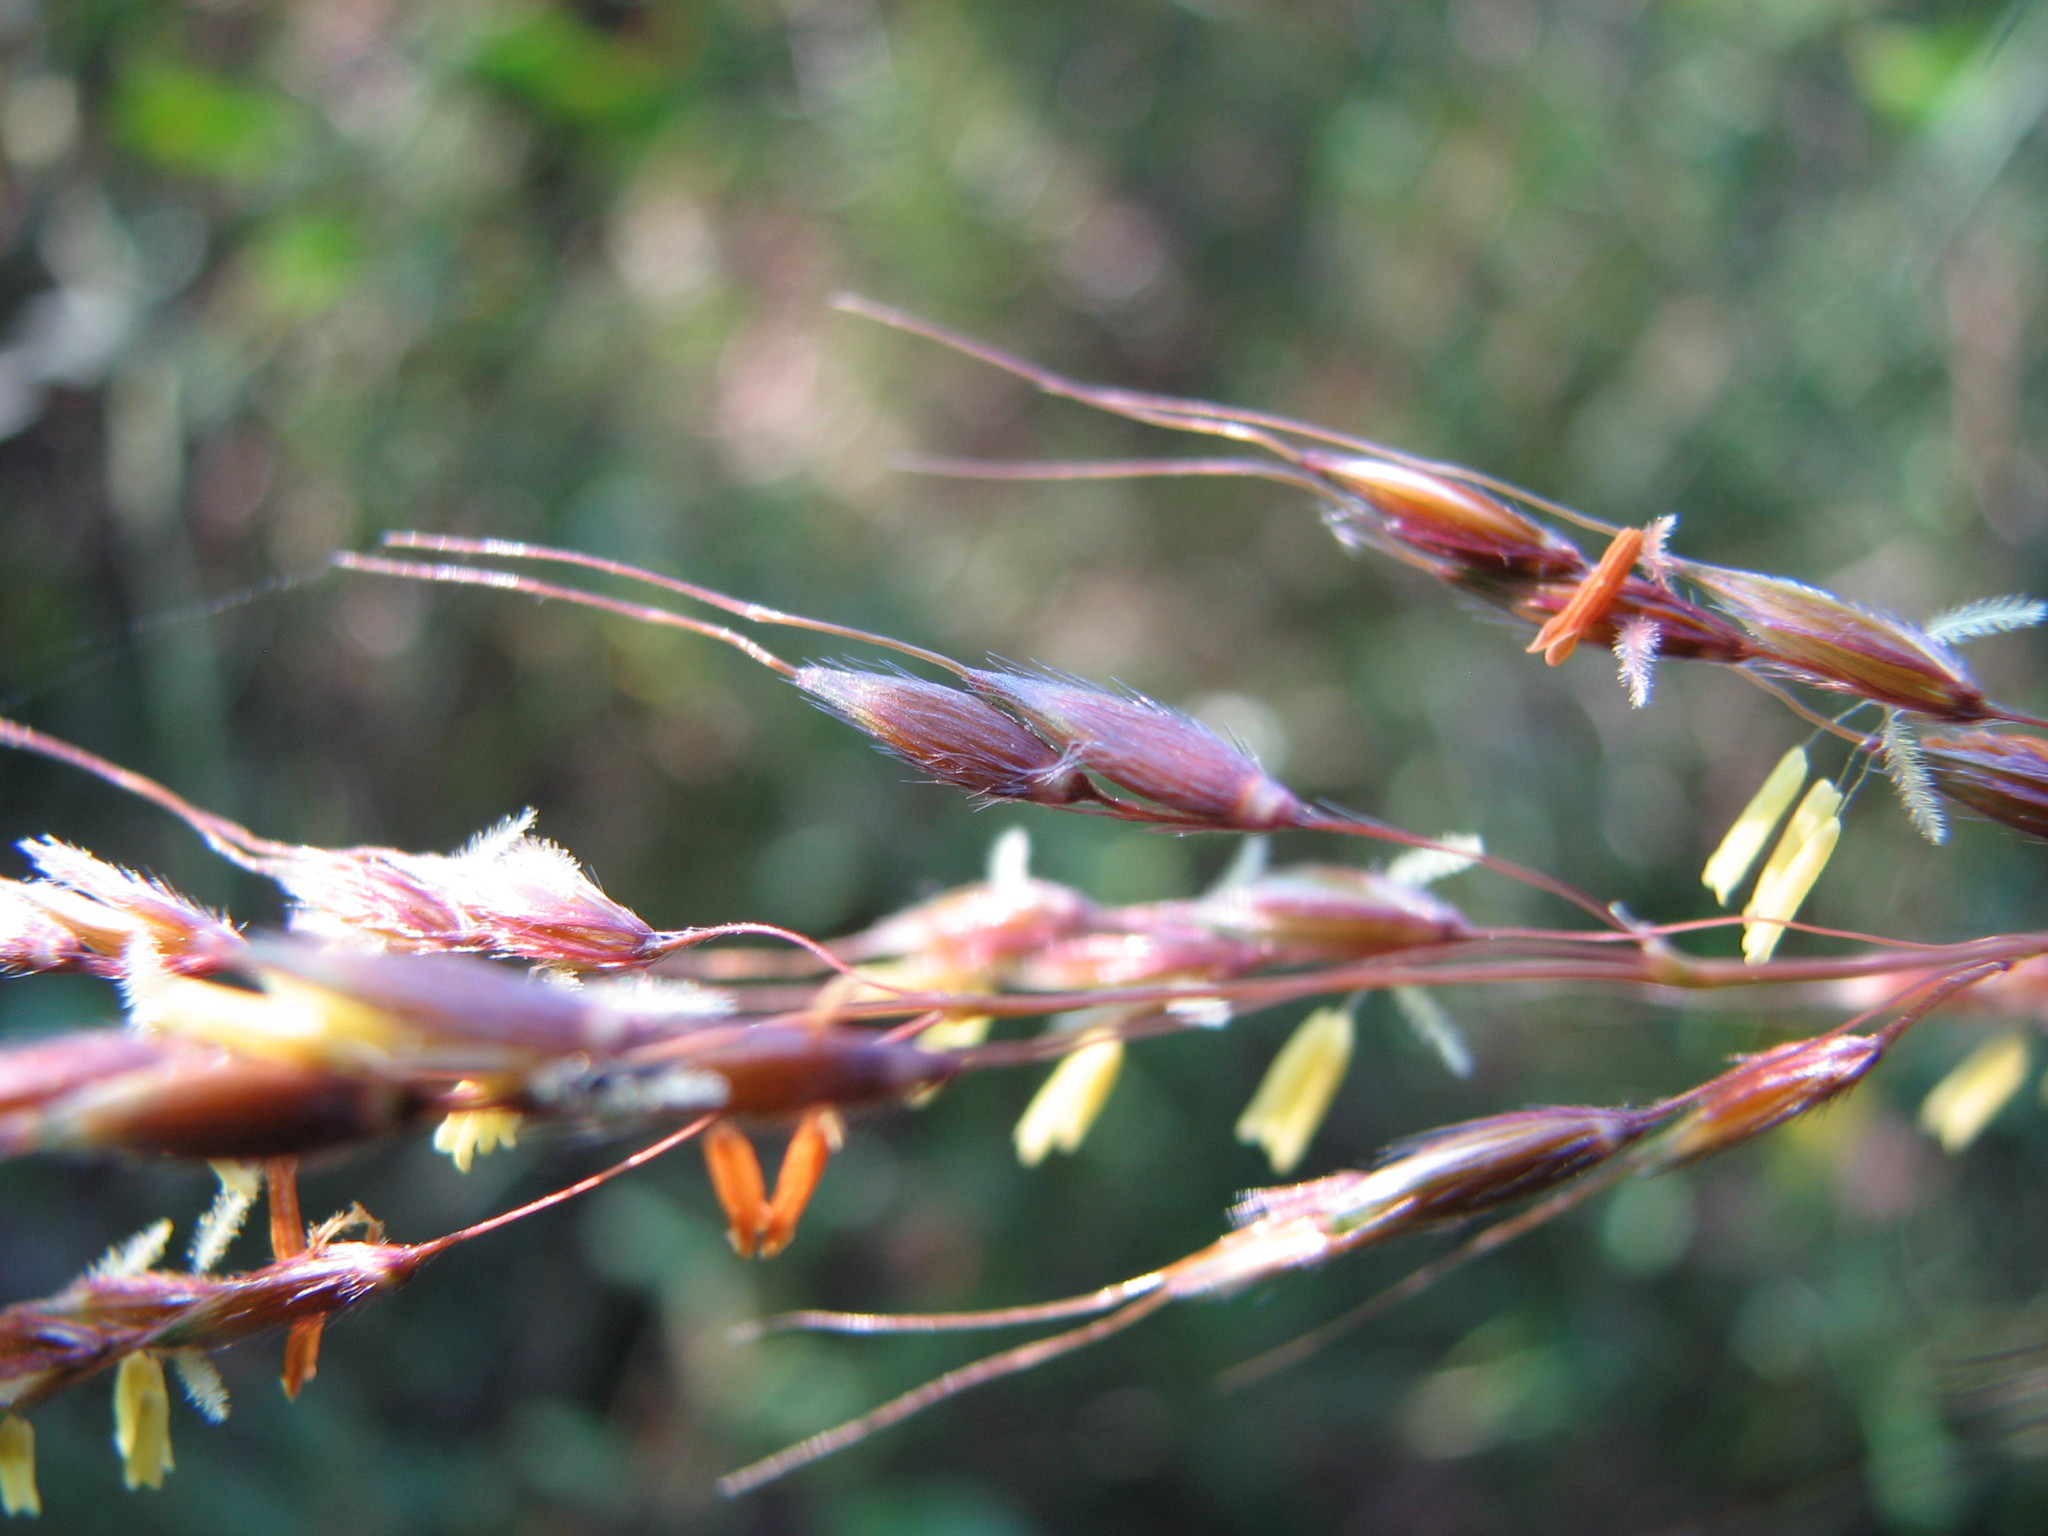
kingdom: Plantae
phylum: Tracheophyta
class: Liliopsida
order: Poales
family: Poaceae
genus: Sorghastrum
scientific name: Sorghastrum nutans
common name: Indian grass
